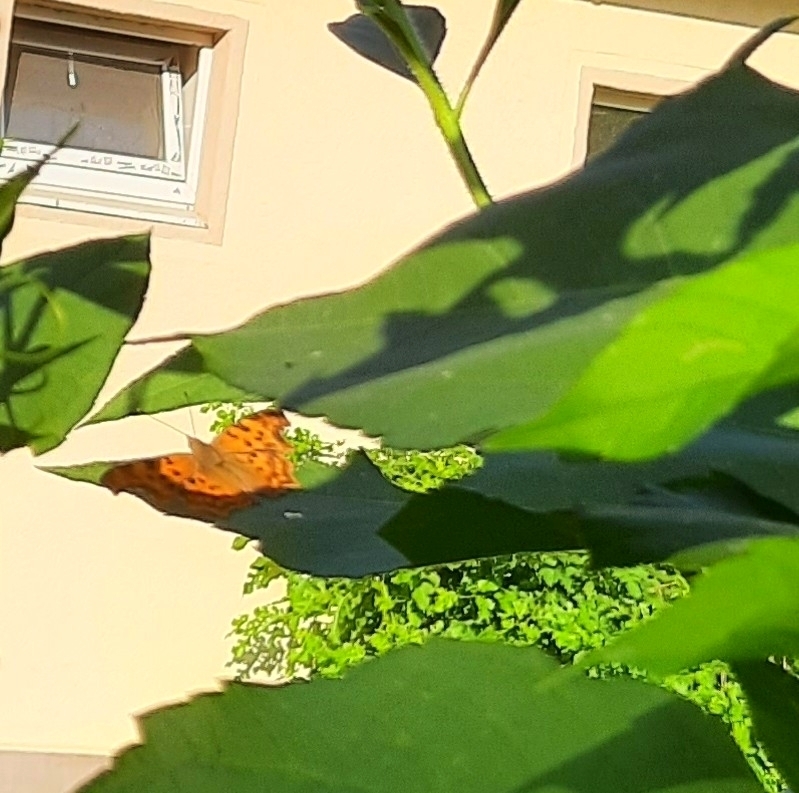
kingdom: Animalia
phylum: Arthropoda
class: Insecta
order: Lepidoptera
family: Nymphalidae
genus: Polygonia
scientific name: Polygonia c-album
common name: Comma
